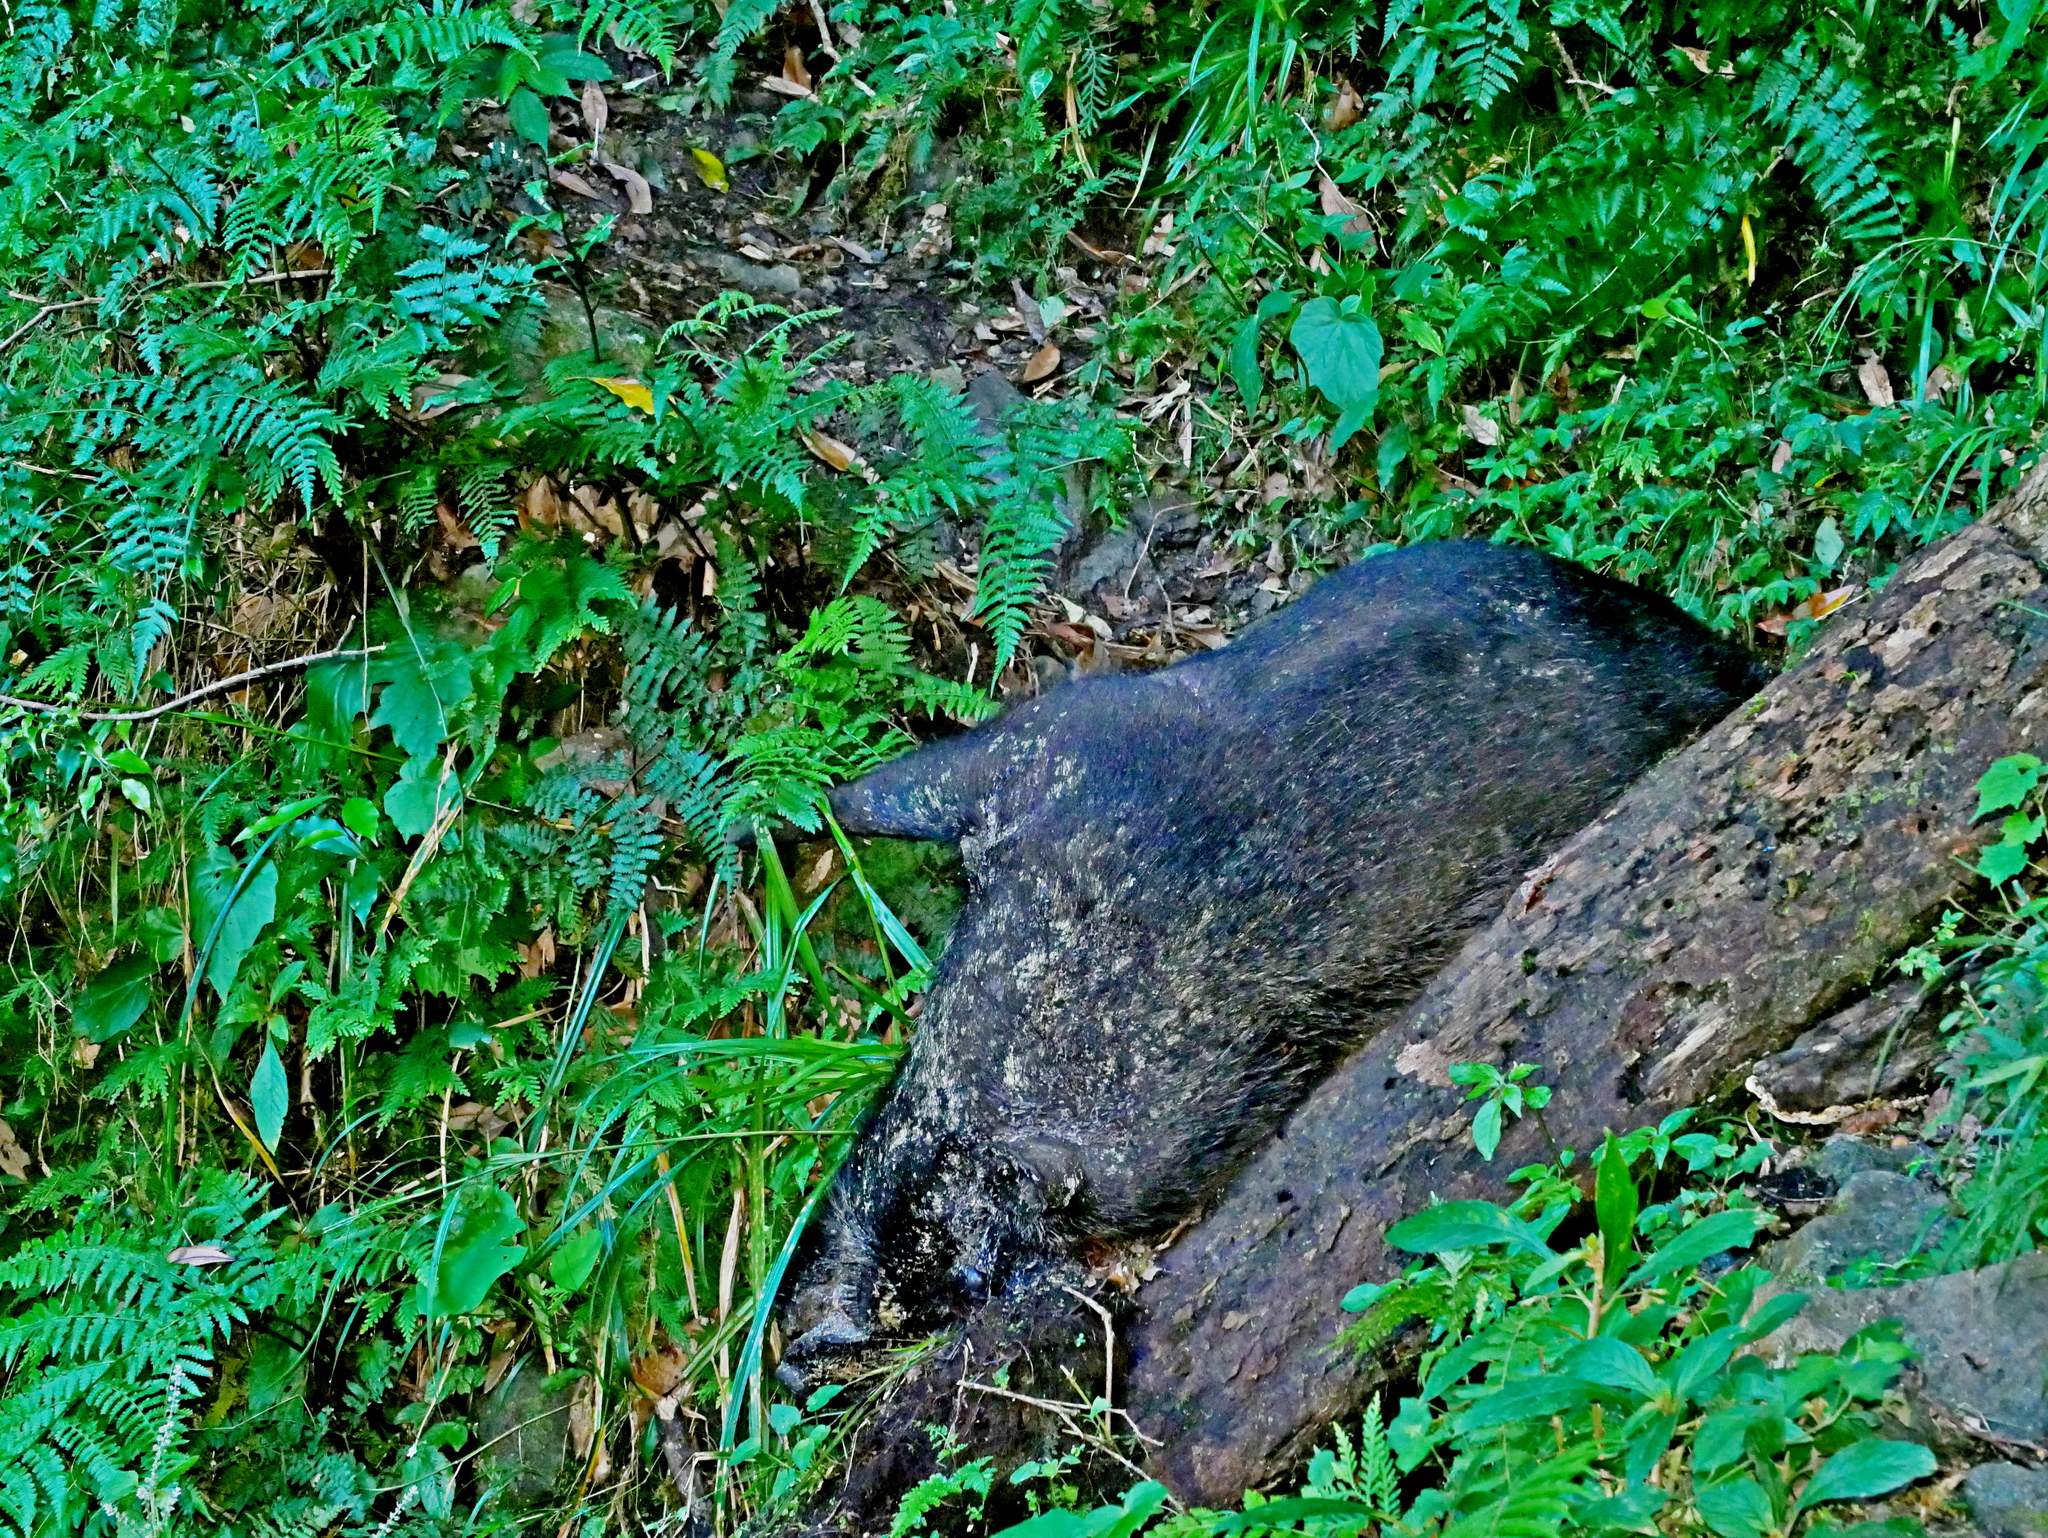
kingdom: Animalia
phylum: Chordata
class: Mammalia
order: Artiodactyla
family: Suidae
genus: Sus
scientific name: Sus scrofa
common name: Wild boar
